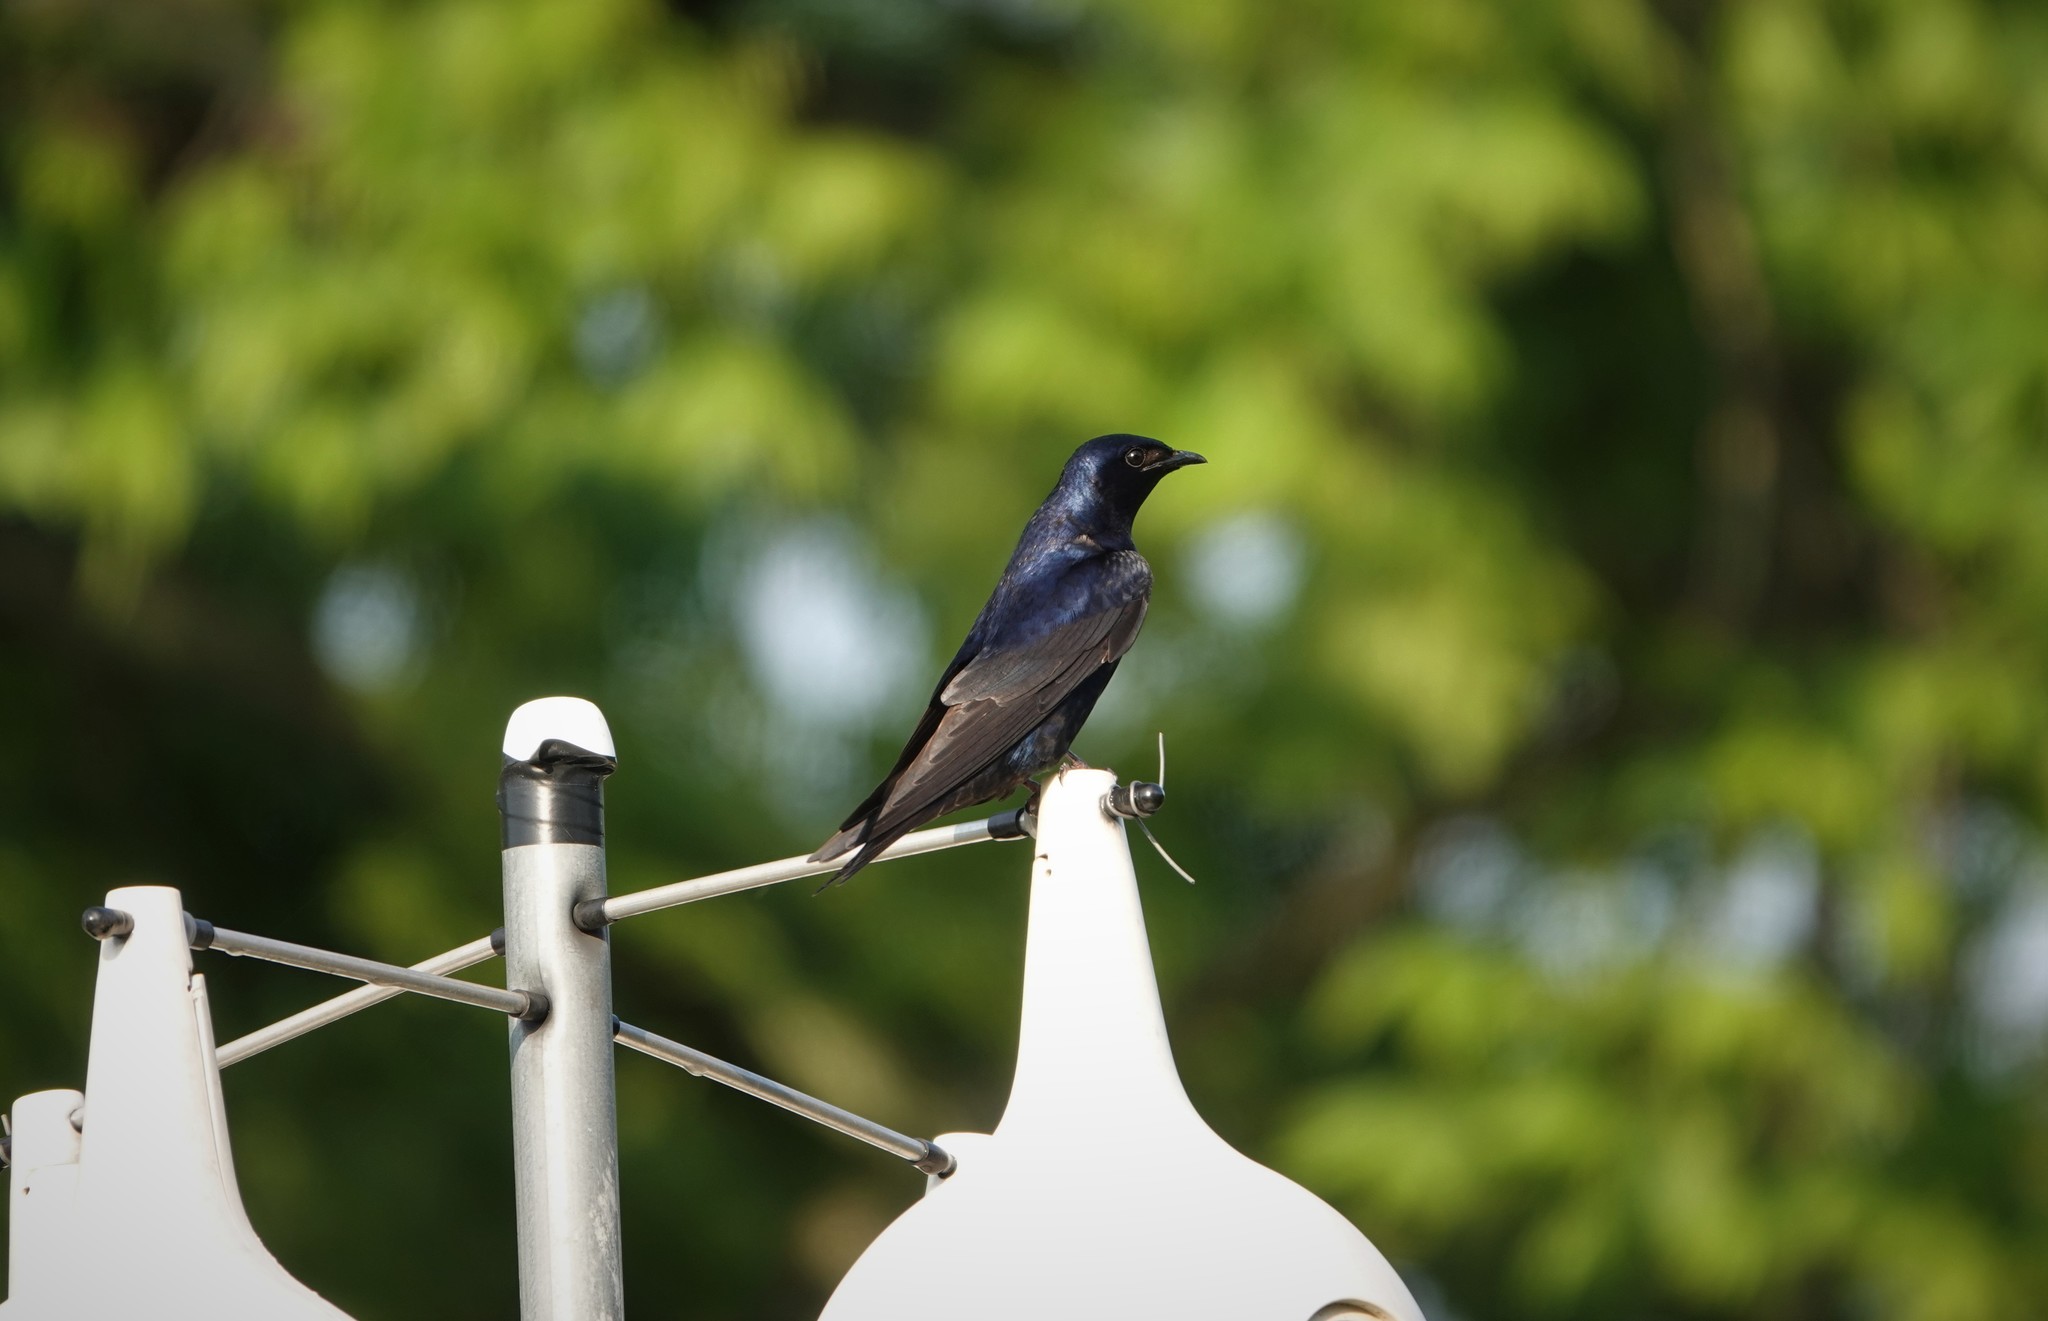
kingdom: Animalia
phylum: Chordata
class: Aves
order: Passeriformes
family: Hirundinidae
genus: Progne
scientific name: Progne subis
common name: Purple martin
